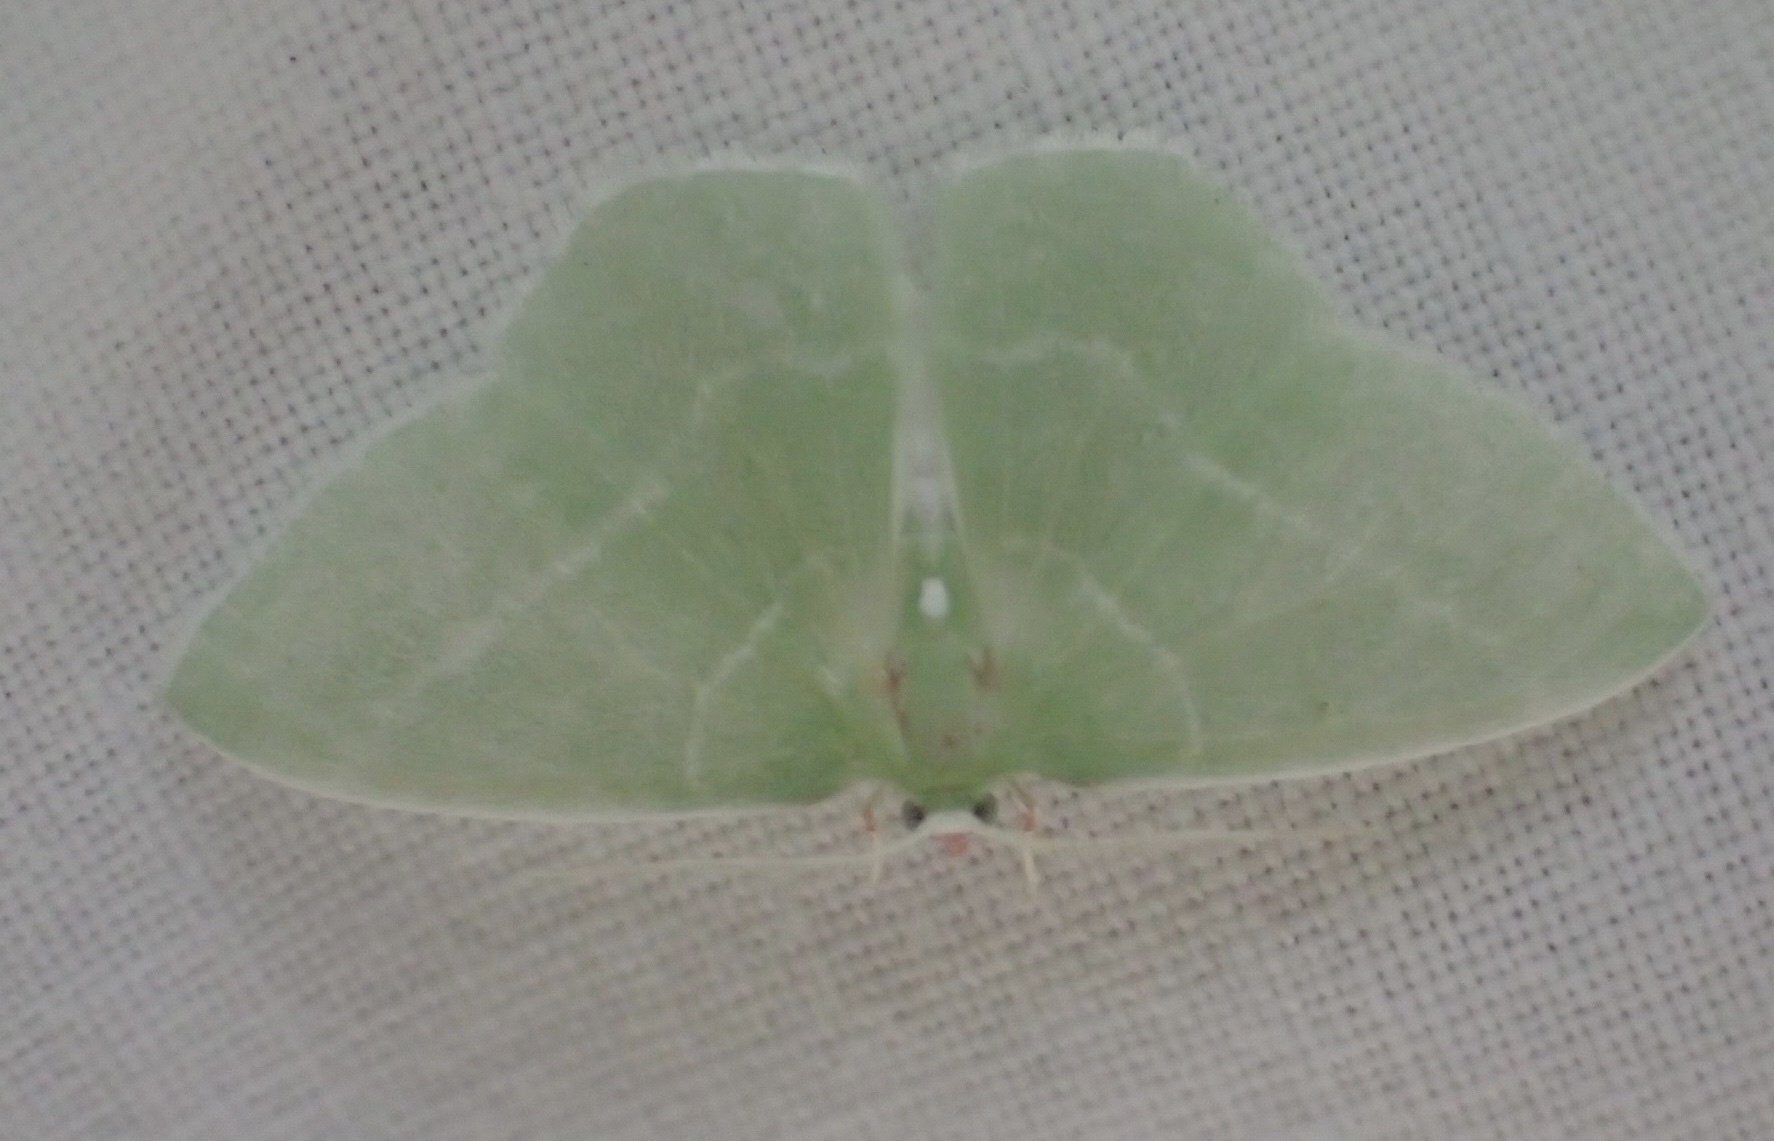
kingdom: Animalia
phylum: Arthropoda
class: Insecta
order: Lepidoptera
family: Geometridae
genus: Nemoria
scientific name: Nemoria mimosaria
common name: White-fringed emerald
